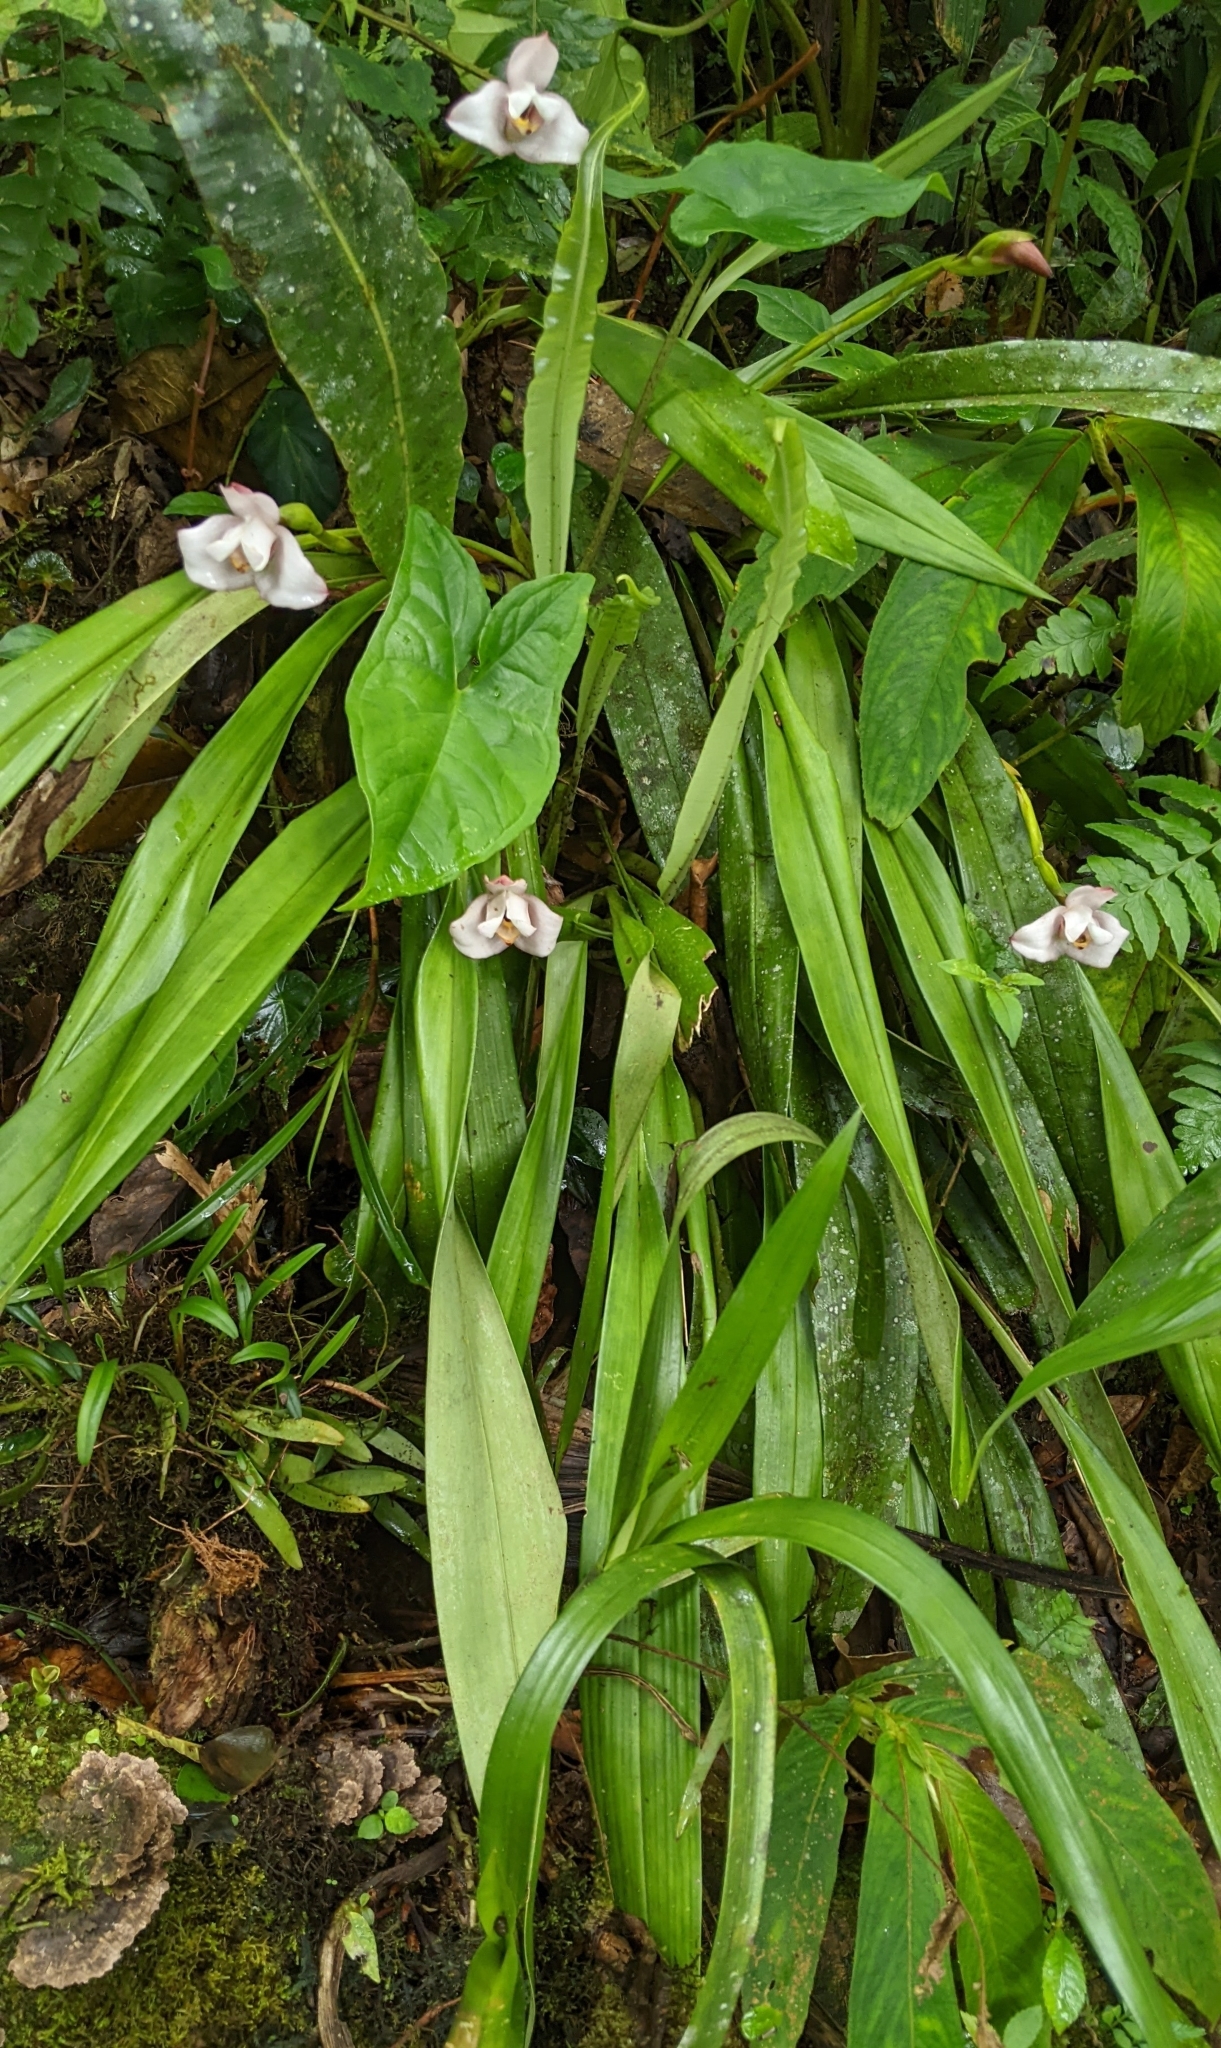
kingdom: Plantae
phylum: Tracheophyta
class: Liliopsida
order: Asparagales
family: Orchidaceae
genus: Maxillaria
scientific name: Maxillaria roseola
